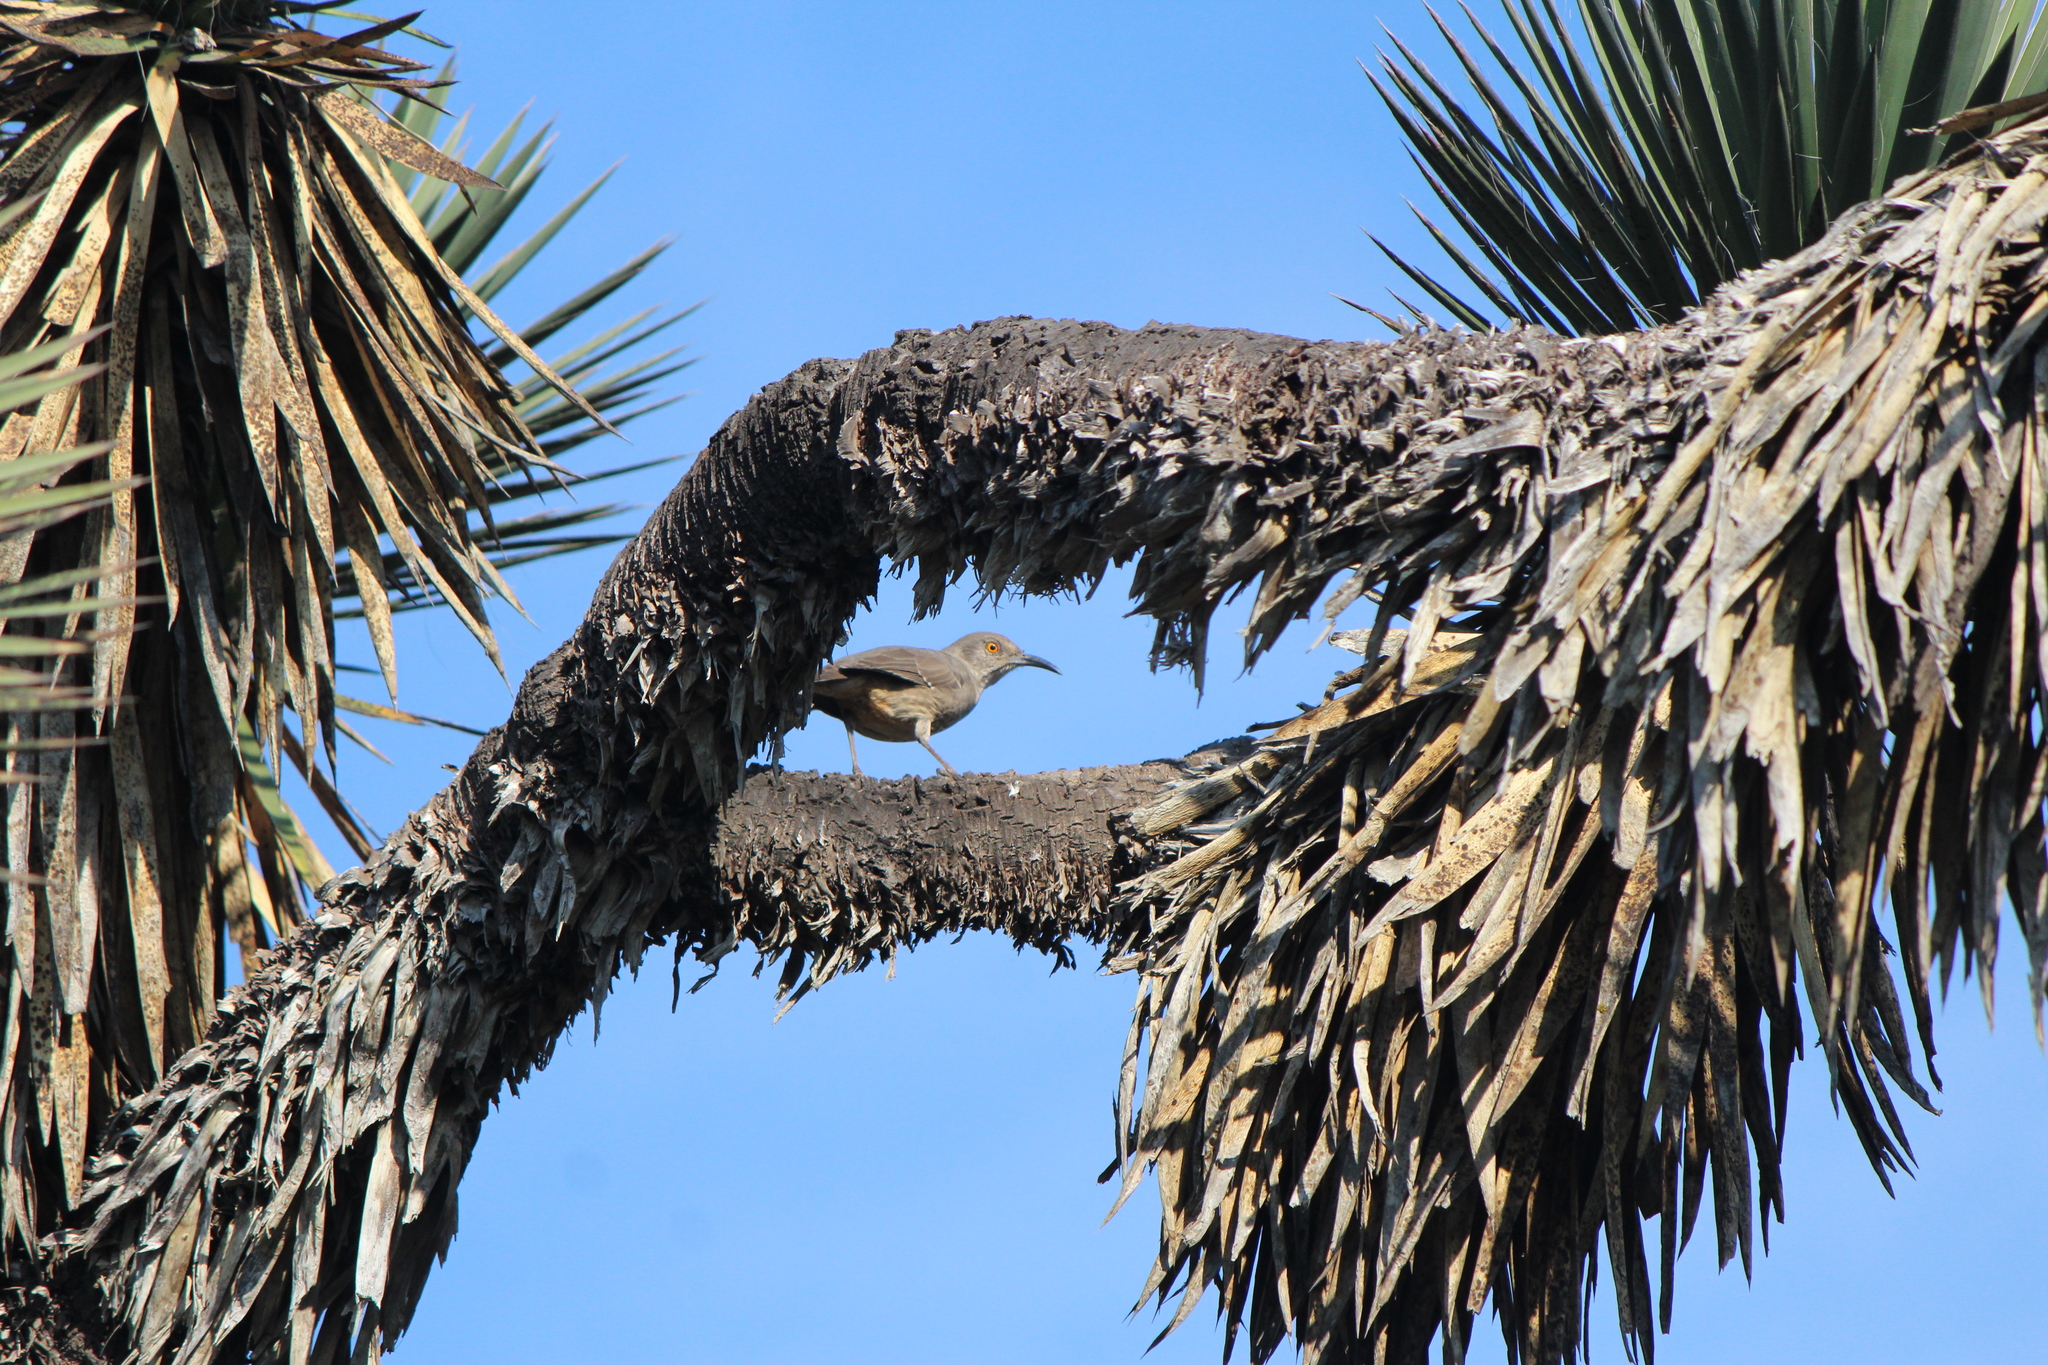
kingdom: Animalia
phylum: Chordata
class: Aves
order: Passeriformes
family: Mimidae
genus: Toxostoma
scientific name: Toxostoma curvirostre
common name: Curve-billed thrasher
